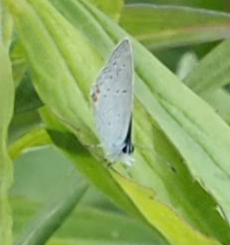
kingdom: Animalia
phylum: Arthropoda
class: Insecta
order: Lepidoptera
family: Lycaenidae
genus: Elkalyce
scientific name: Elkalyce comyntas
